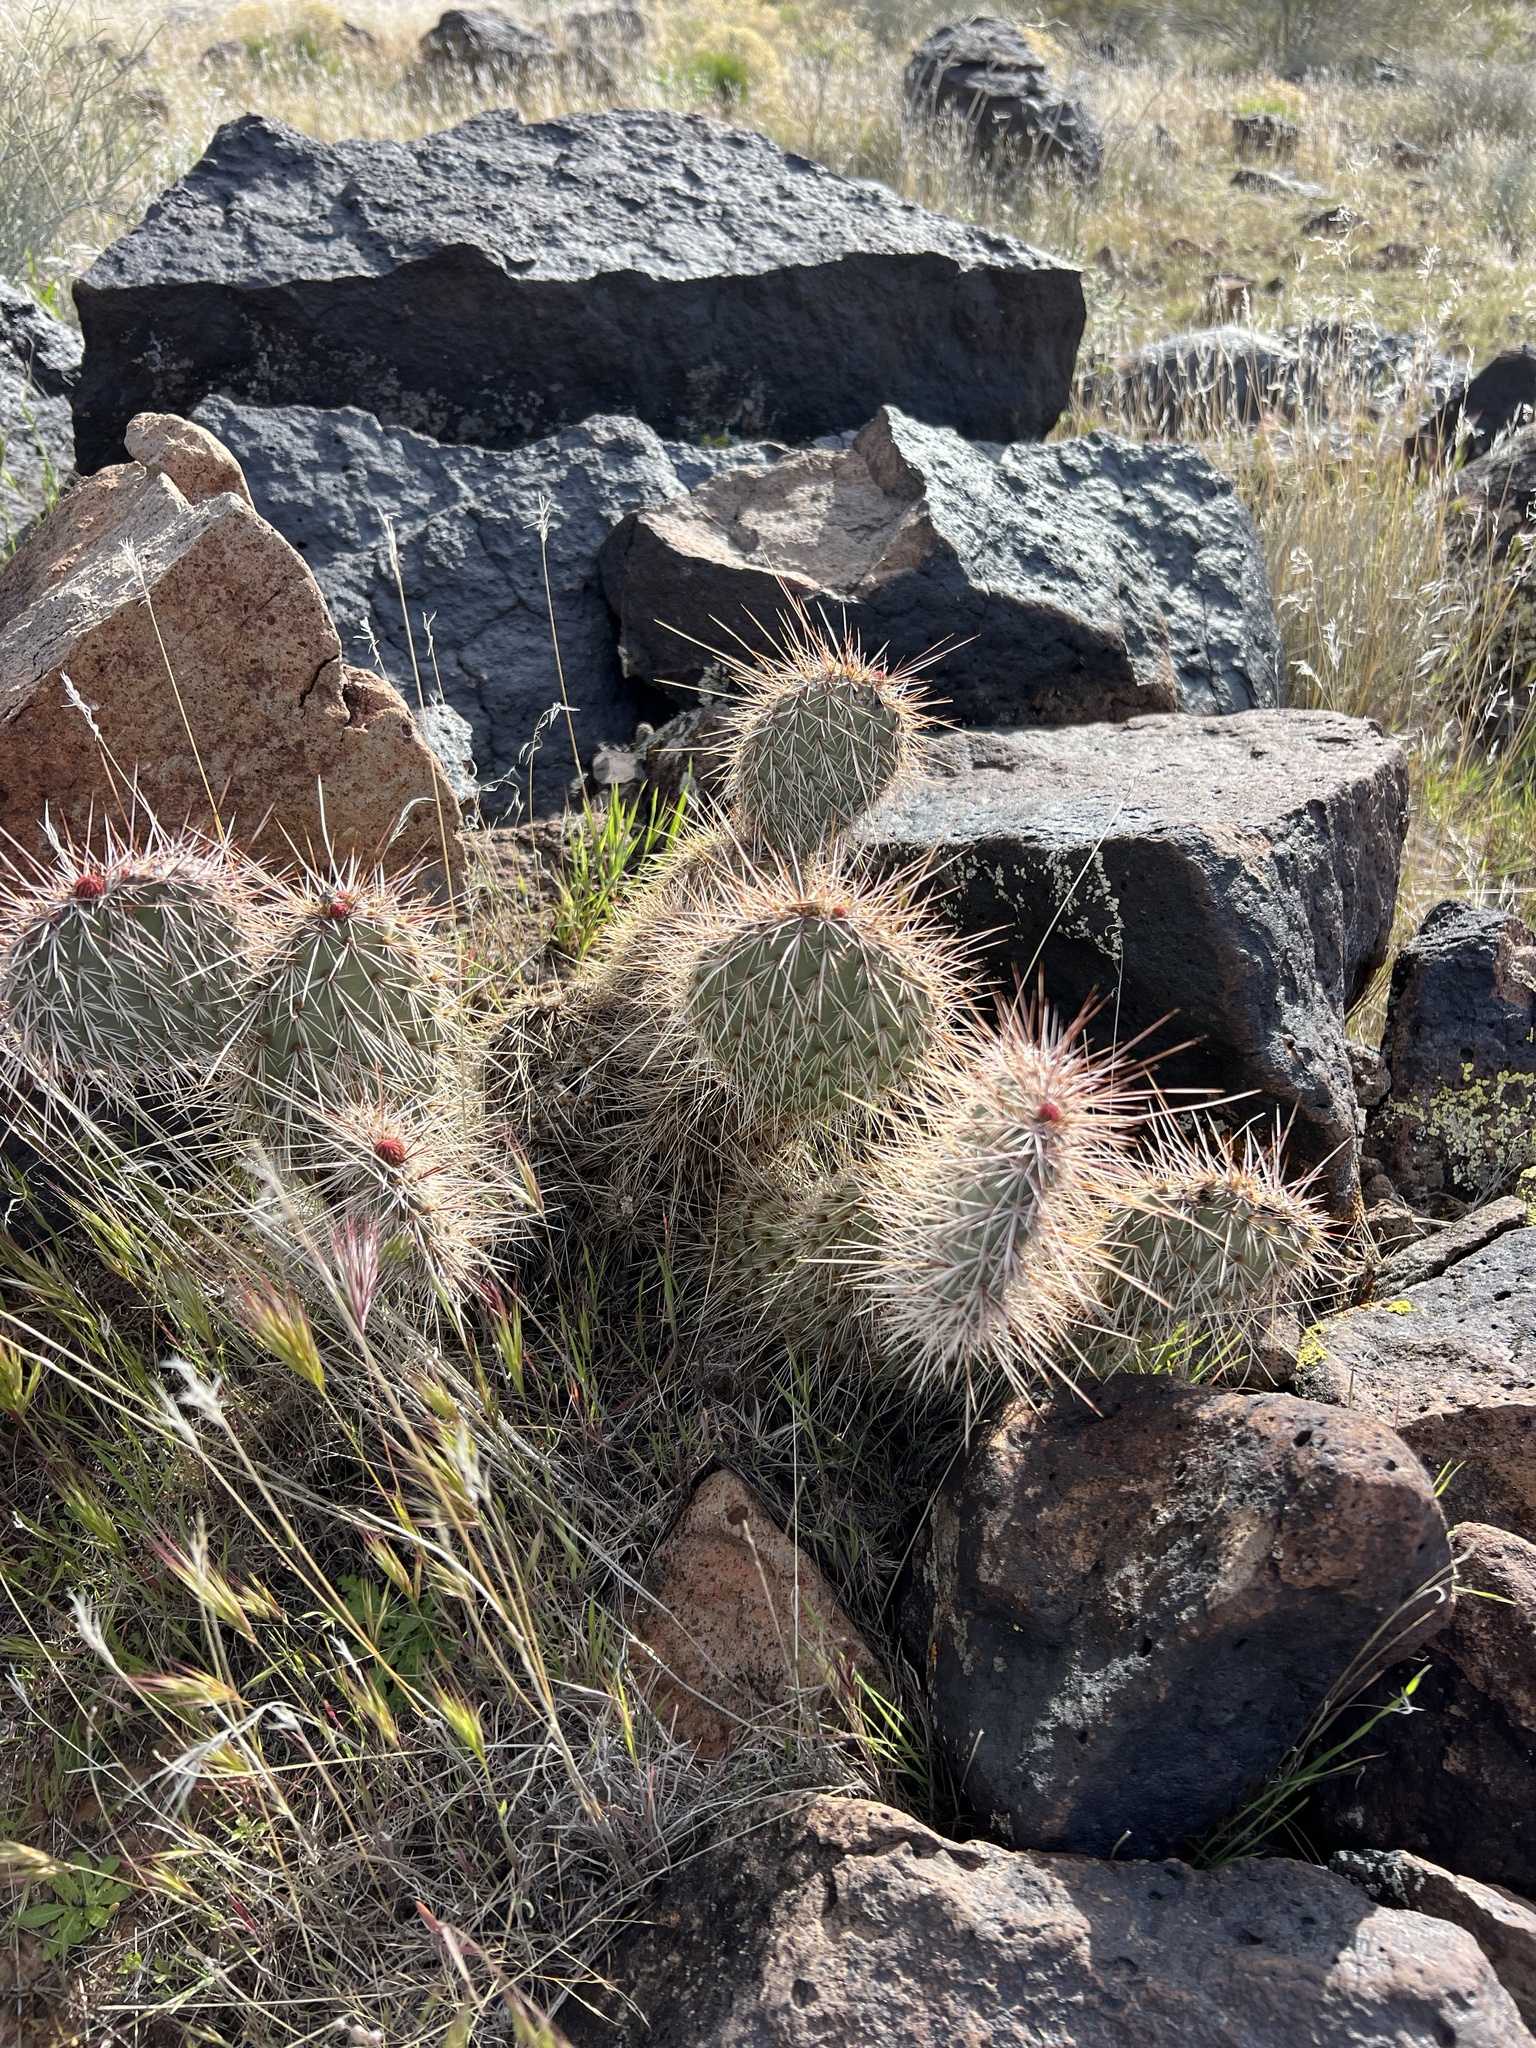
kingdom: Plantae
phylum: Tracheophyta
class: Magnoliopsida
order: Caryophyllales
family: Cactaceae
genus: Opuntia
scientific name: Opuntia polyacantha
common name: Plains prickly-pear
